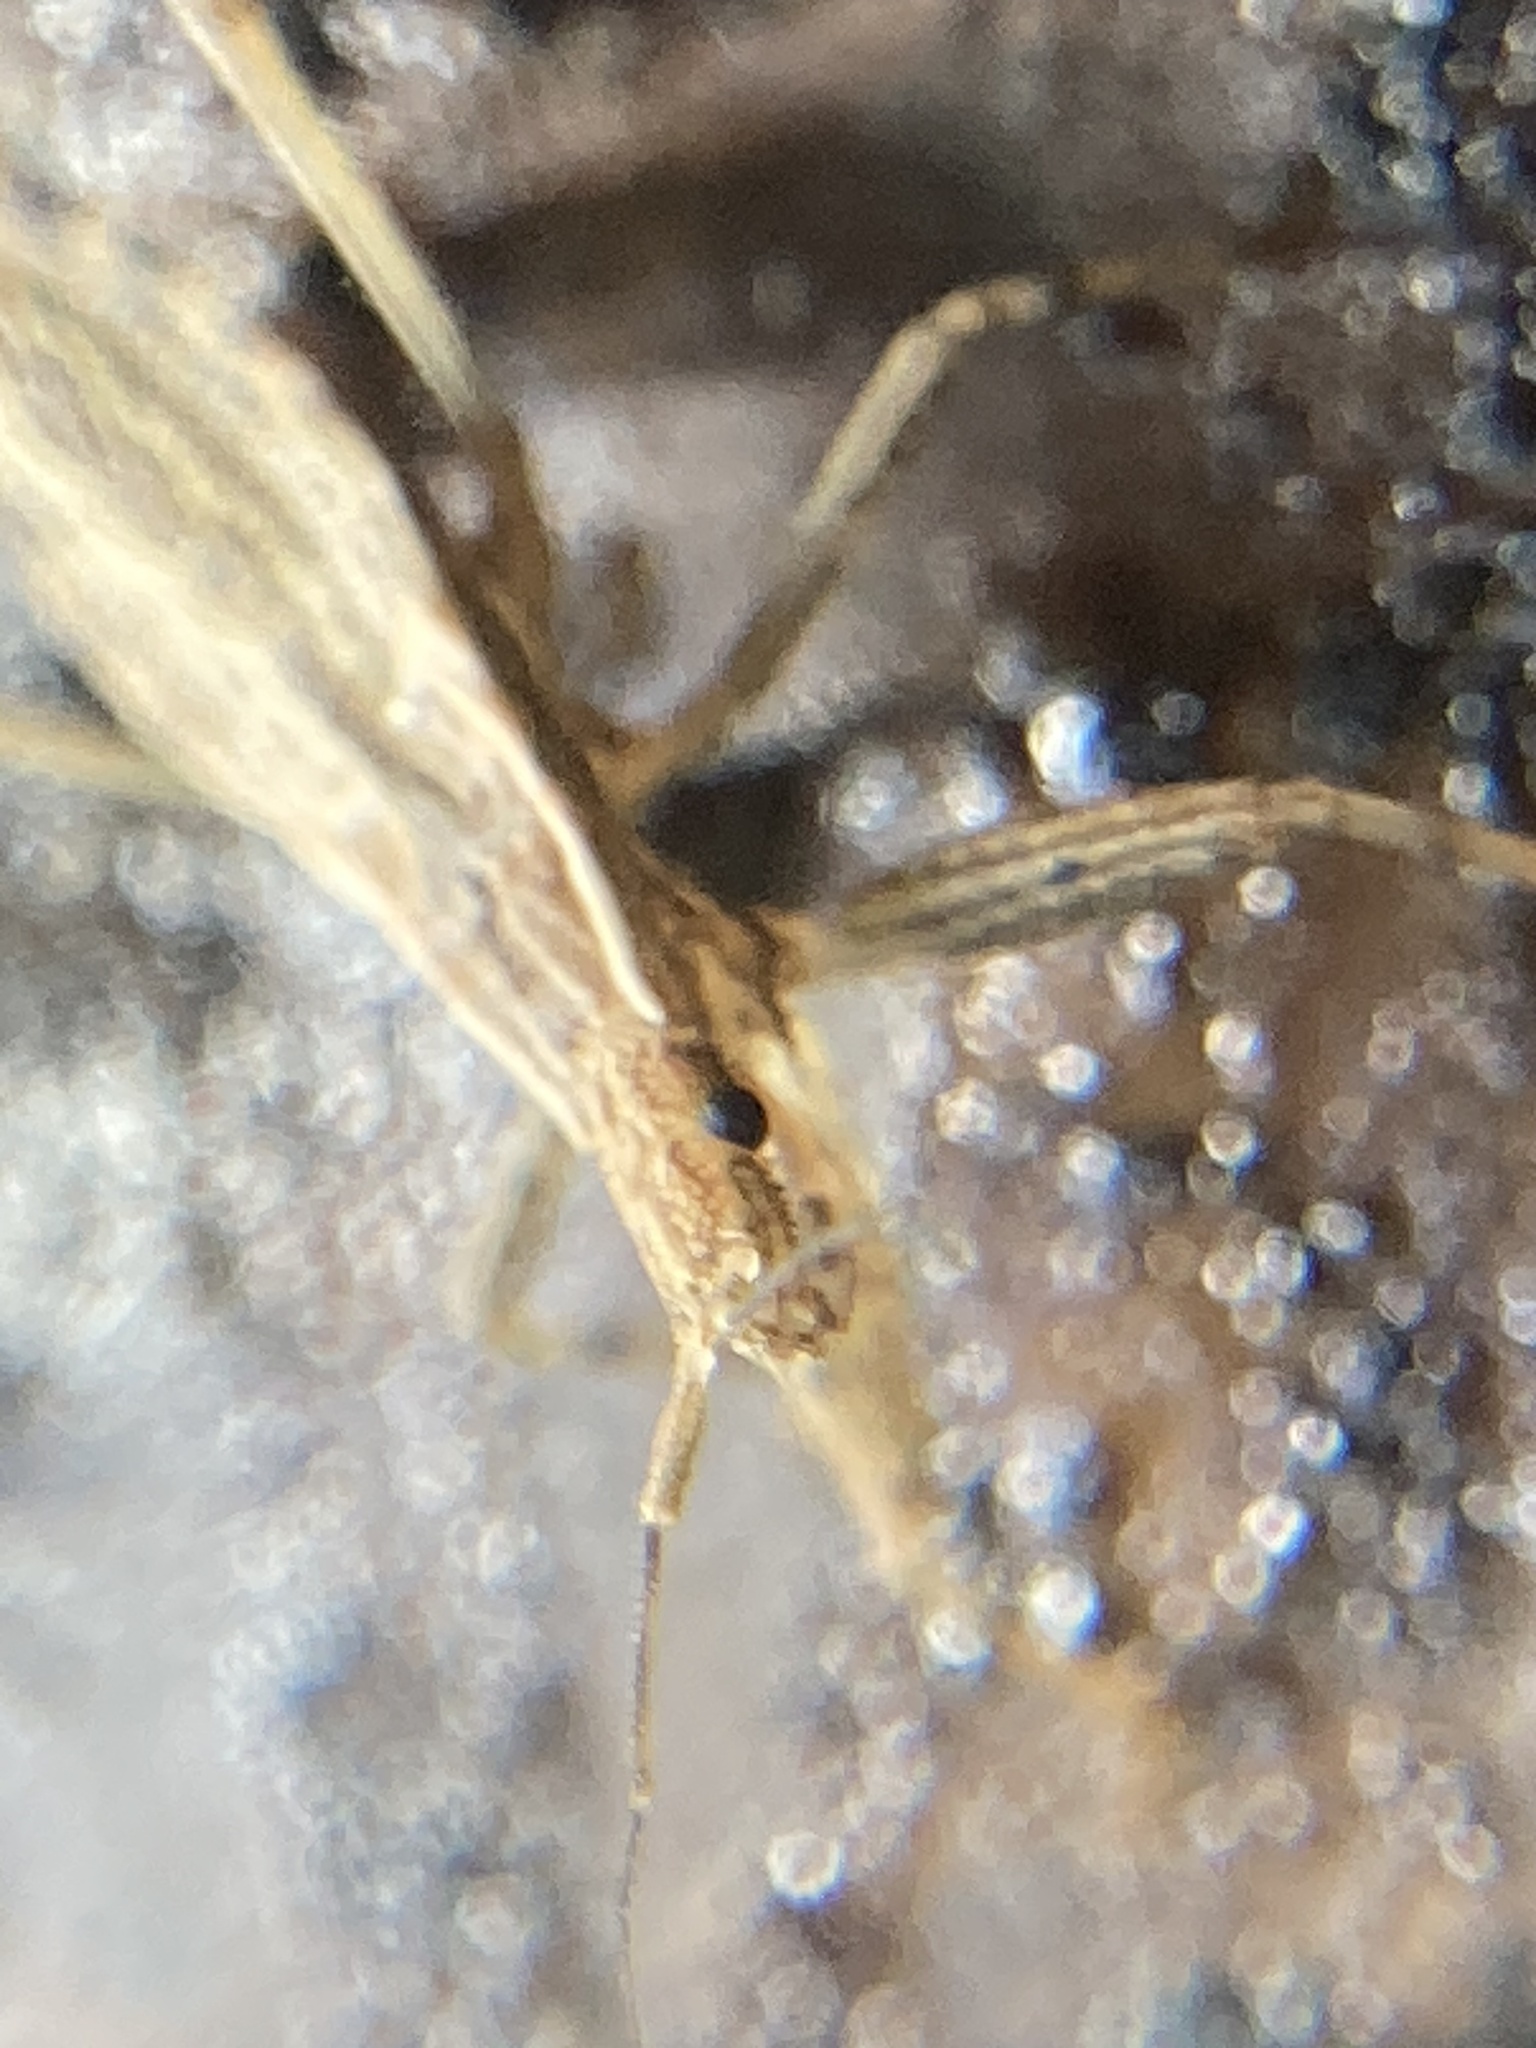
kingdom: Animalia
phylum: Arthropoda
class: Insecta
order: Hemiptera
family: Reduviidae
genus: Sastrapada
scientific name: Sastrapada australica
